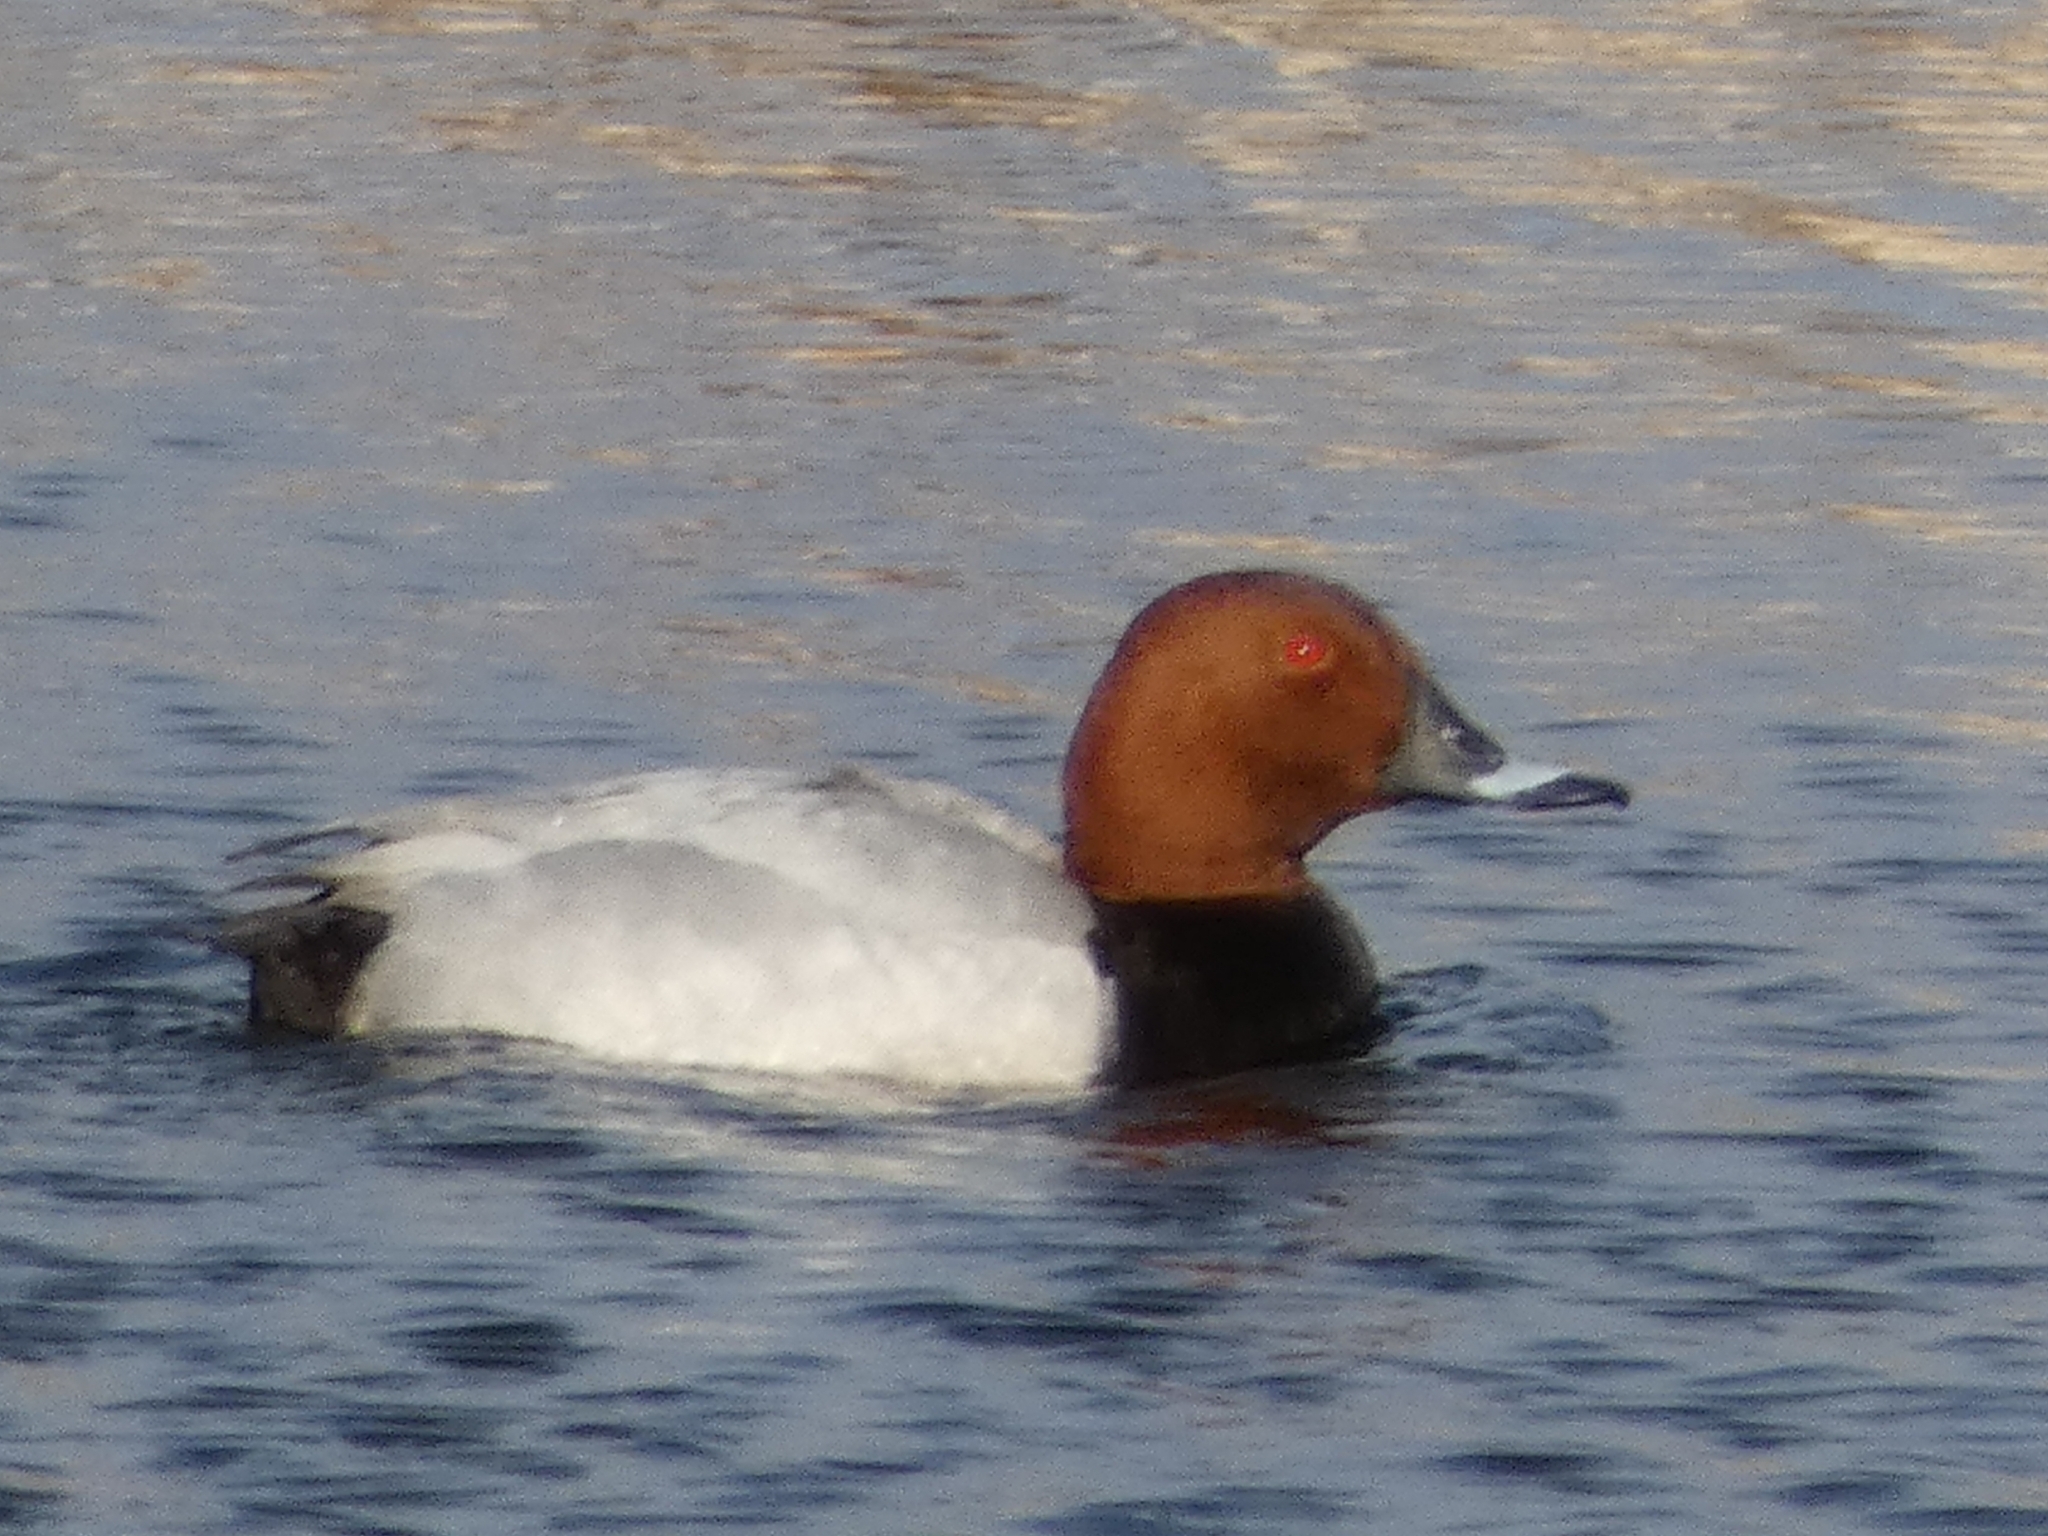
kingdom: Animalia
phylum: Chordata
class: Aves
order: Anseriformes
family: Anatidae
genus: Aythya
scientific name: Aythya ferina
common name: Common pochard
